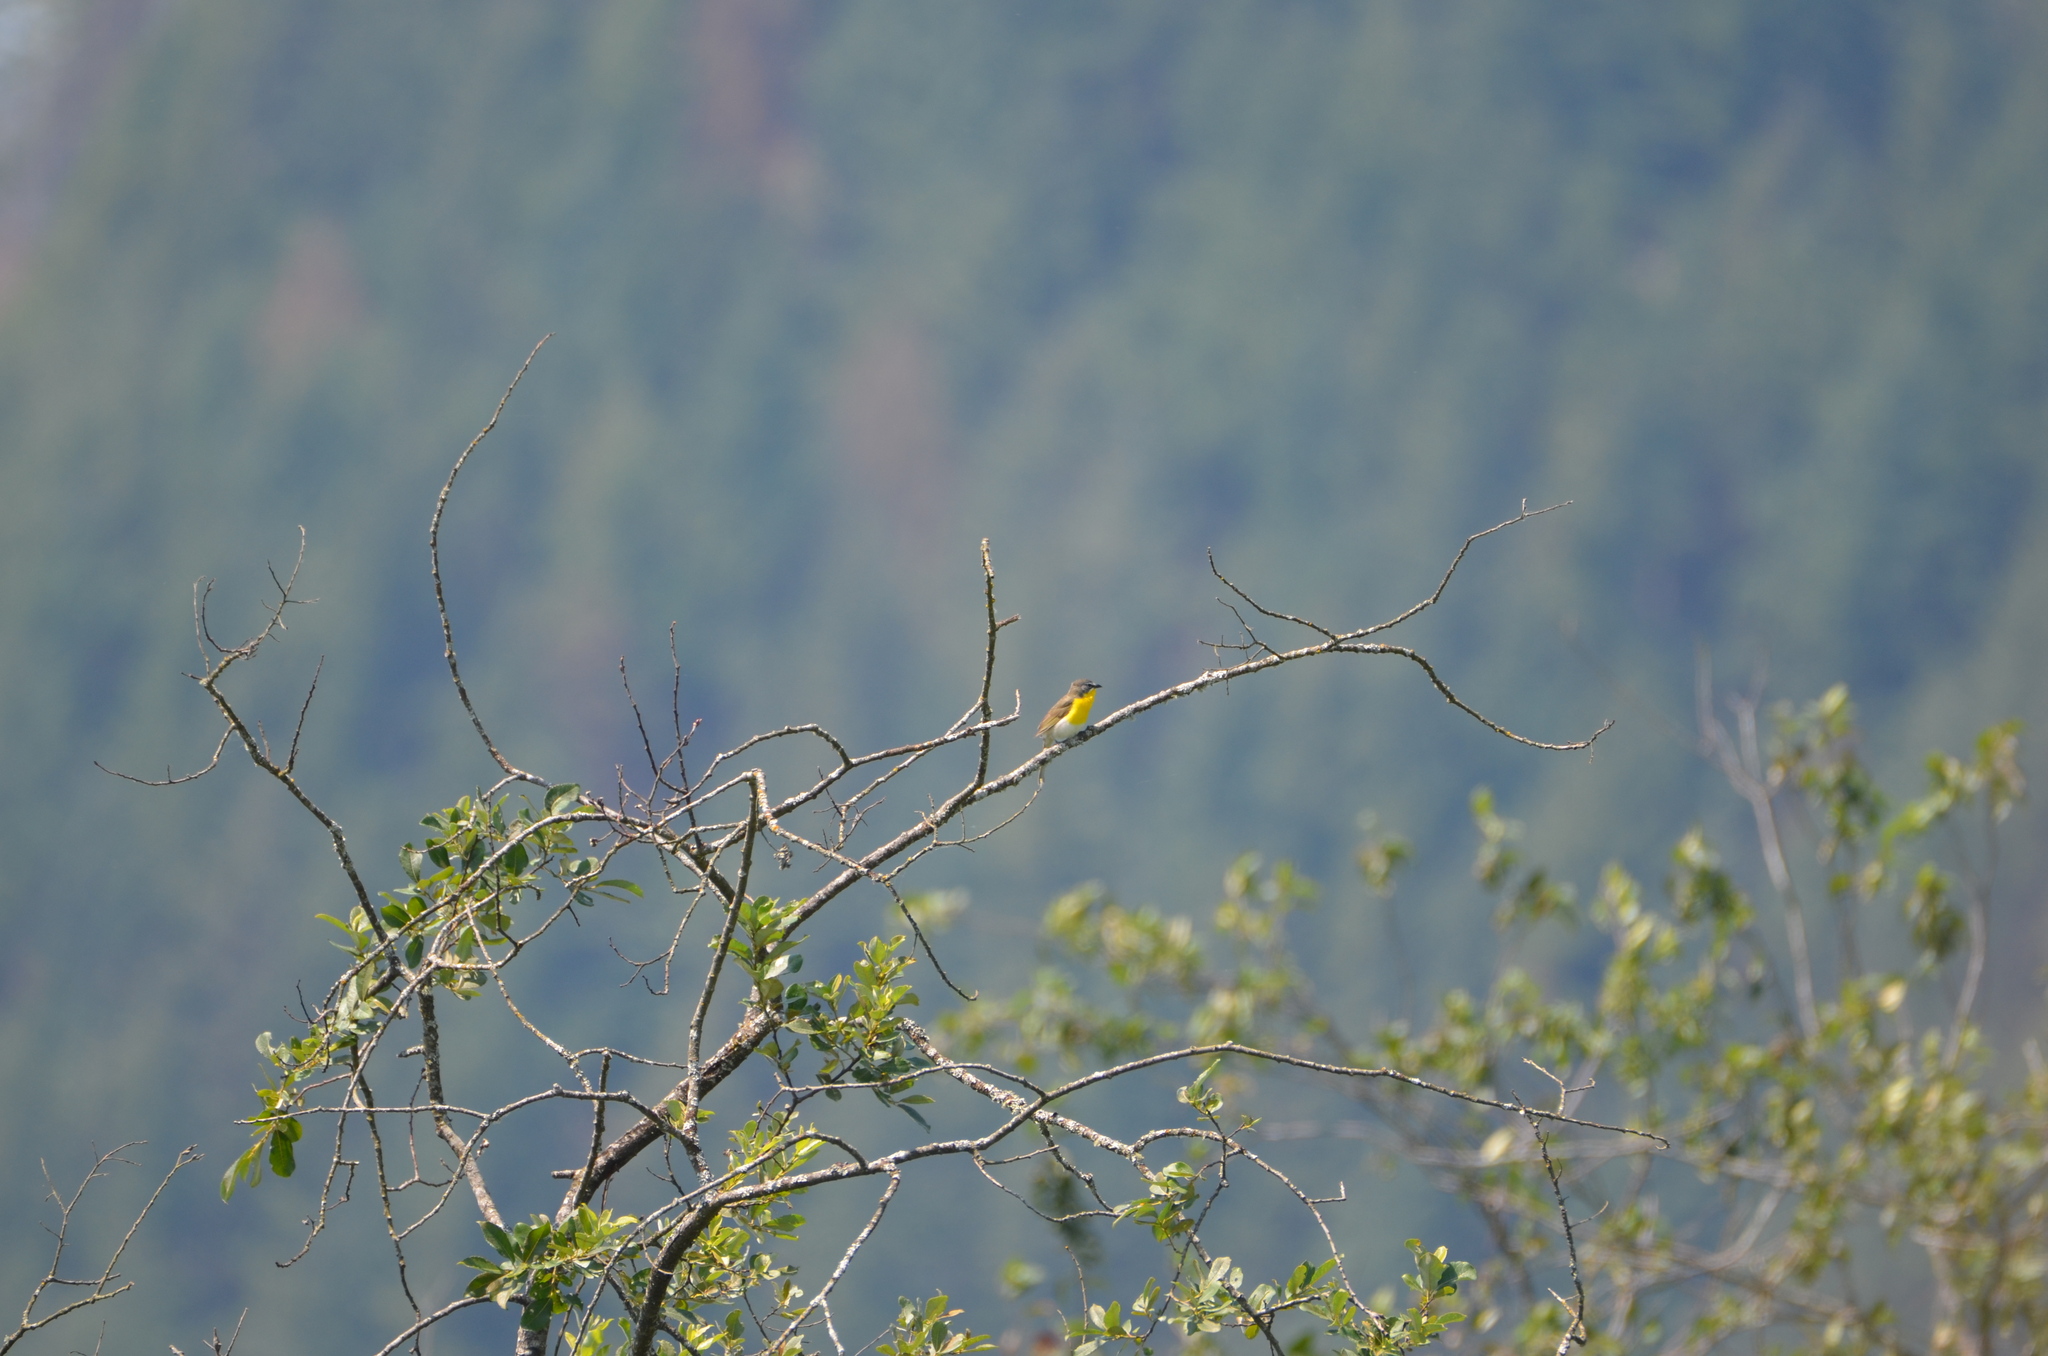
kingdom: Animalia
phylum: Chordata
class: Aves
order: Passeriformes
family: Parulidae
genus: Icteria
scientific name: Icteria virens
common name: Yellow-breasted chat
